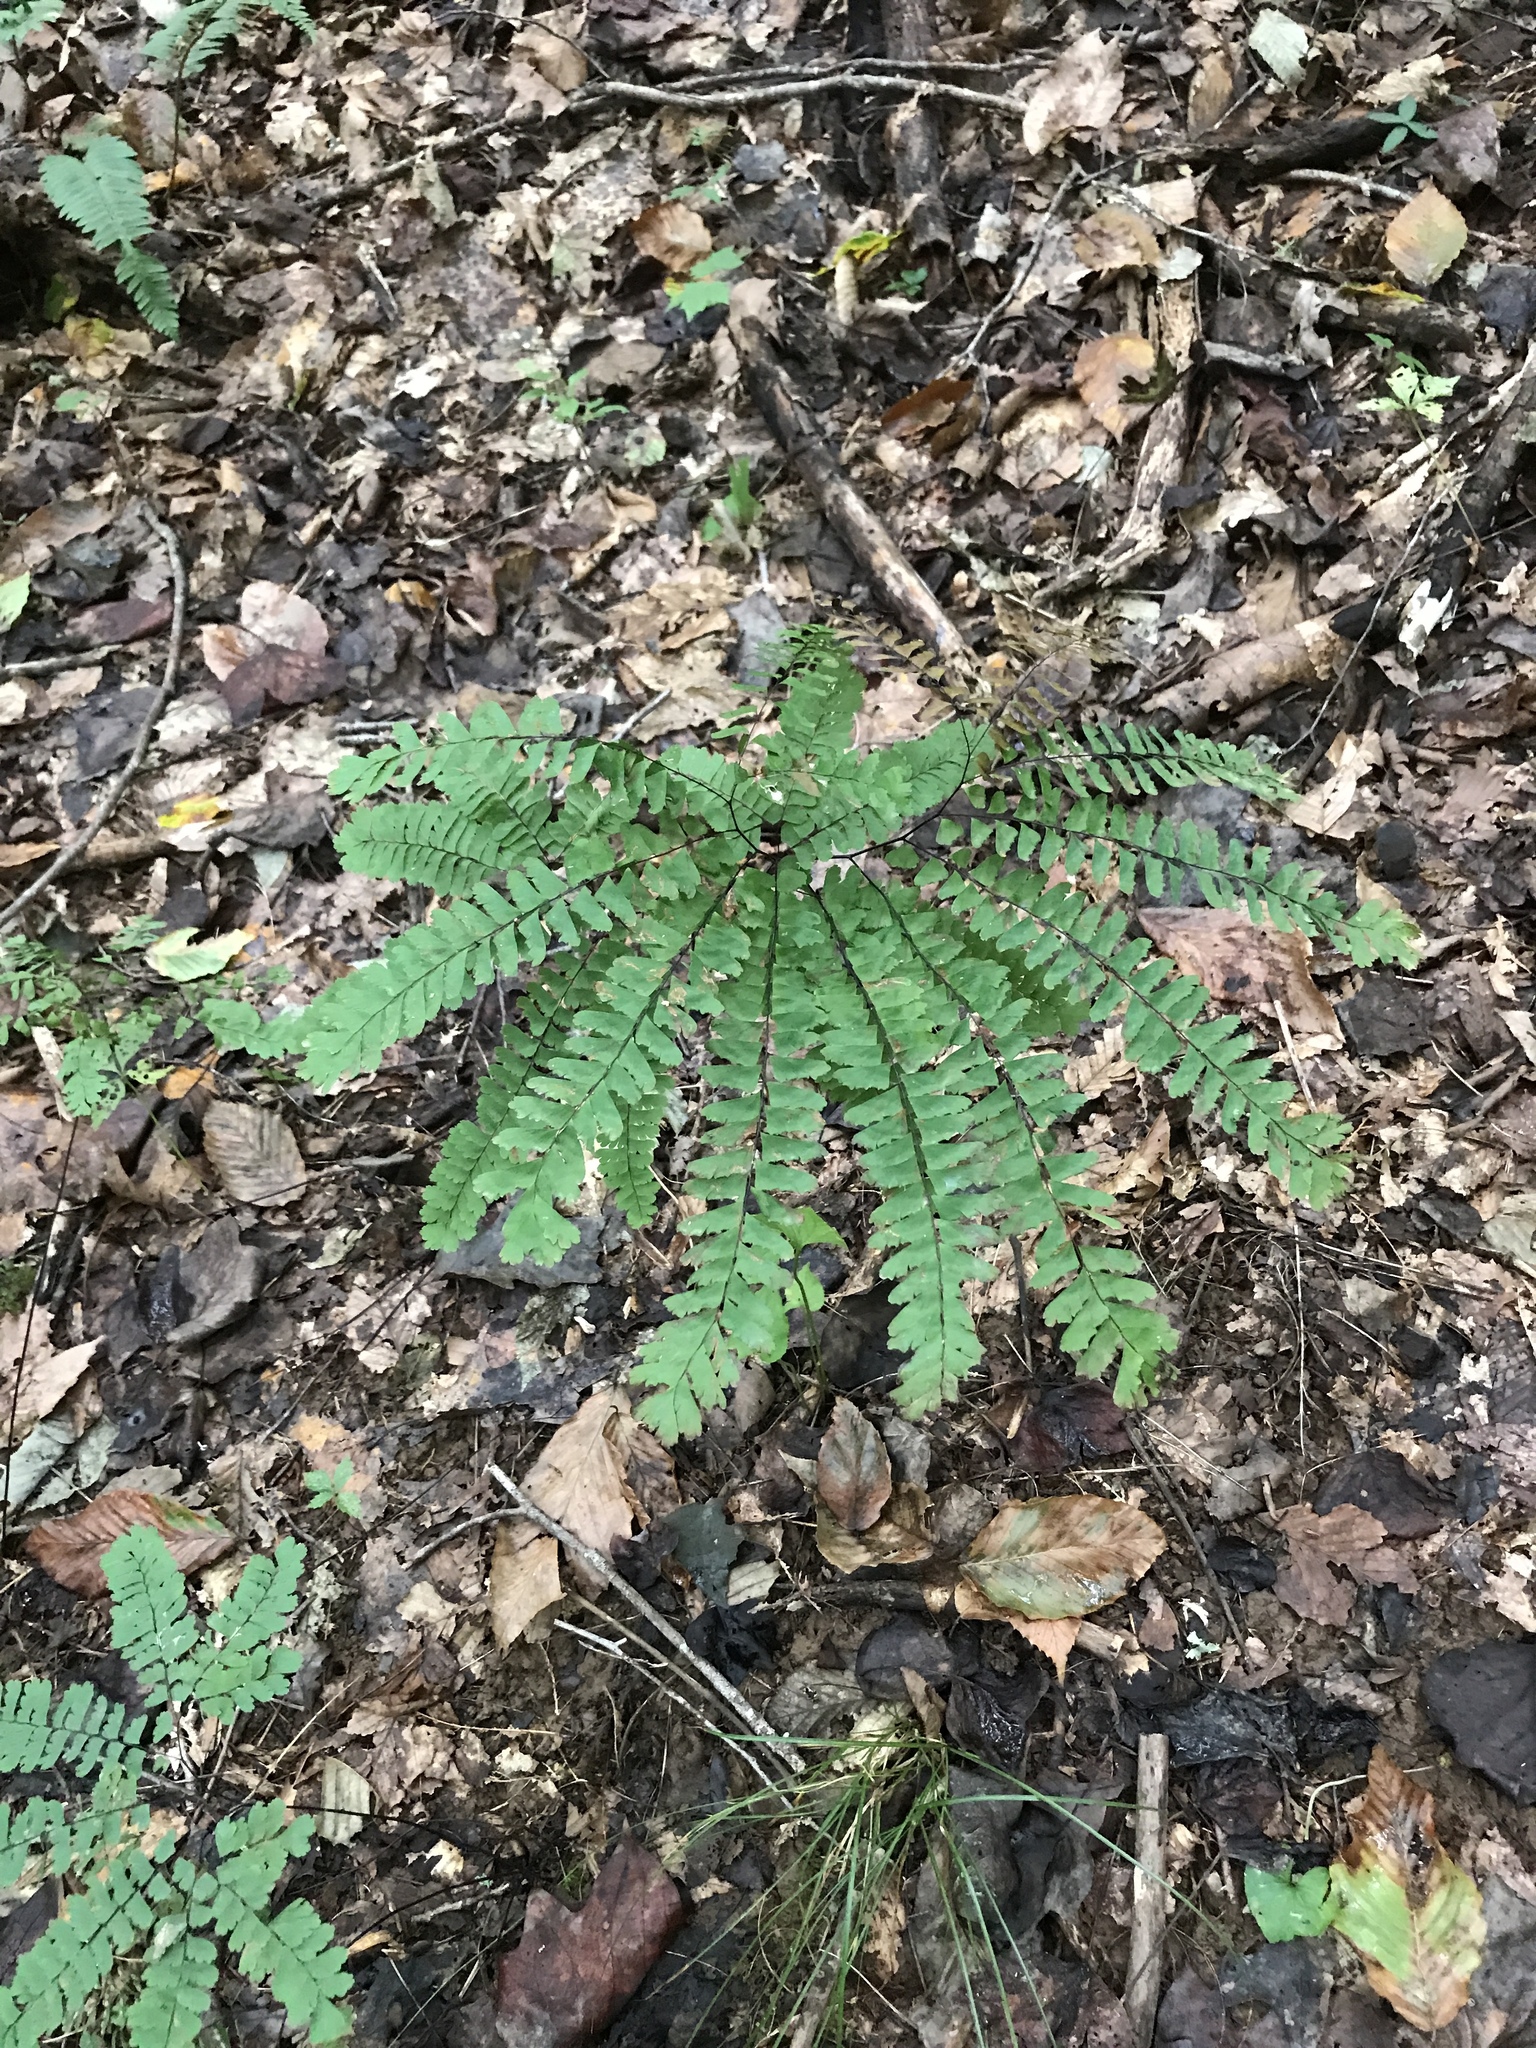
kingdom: Plantae
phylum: Tracheophyta
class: Polypodiopsida
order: Polypodiales
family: Pteridaceae
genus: Adiantum
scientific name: Adiantum pedatum
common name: Five-finger fern
